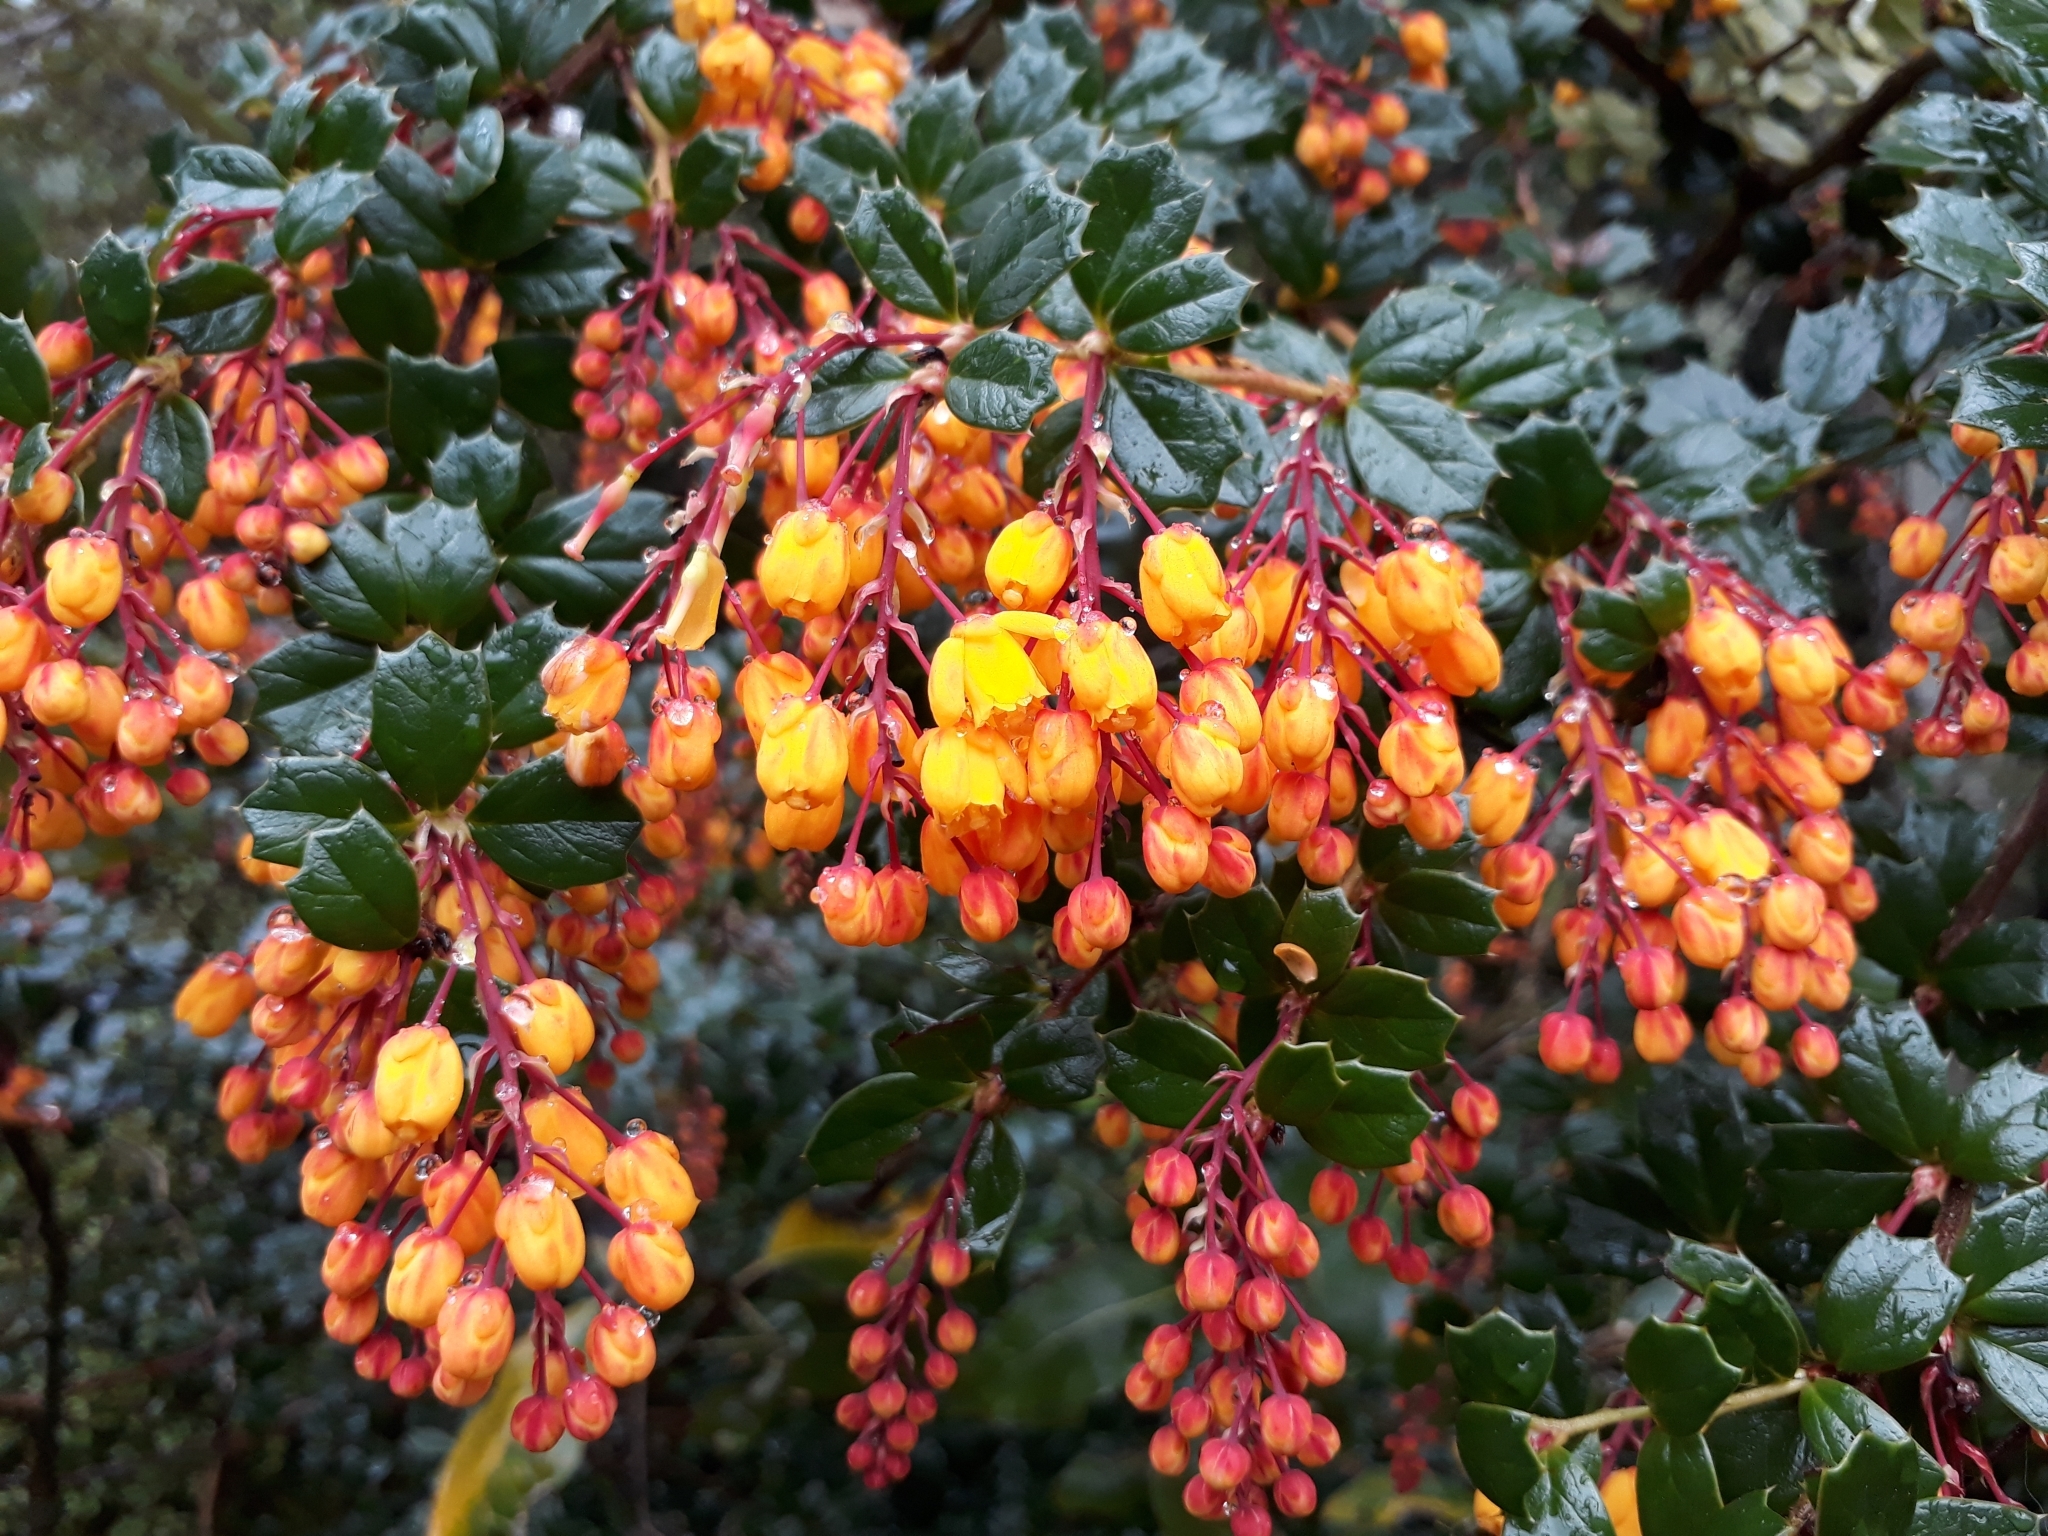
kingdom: Plantae
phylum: Tracheophyta
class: Magnoliopsida
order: Ranunculales
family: Berberidaceae
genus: Berberis
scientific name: Berberis darwinii
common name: Darwin's barberry
